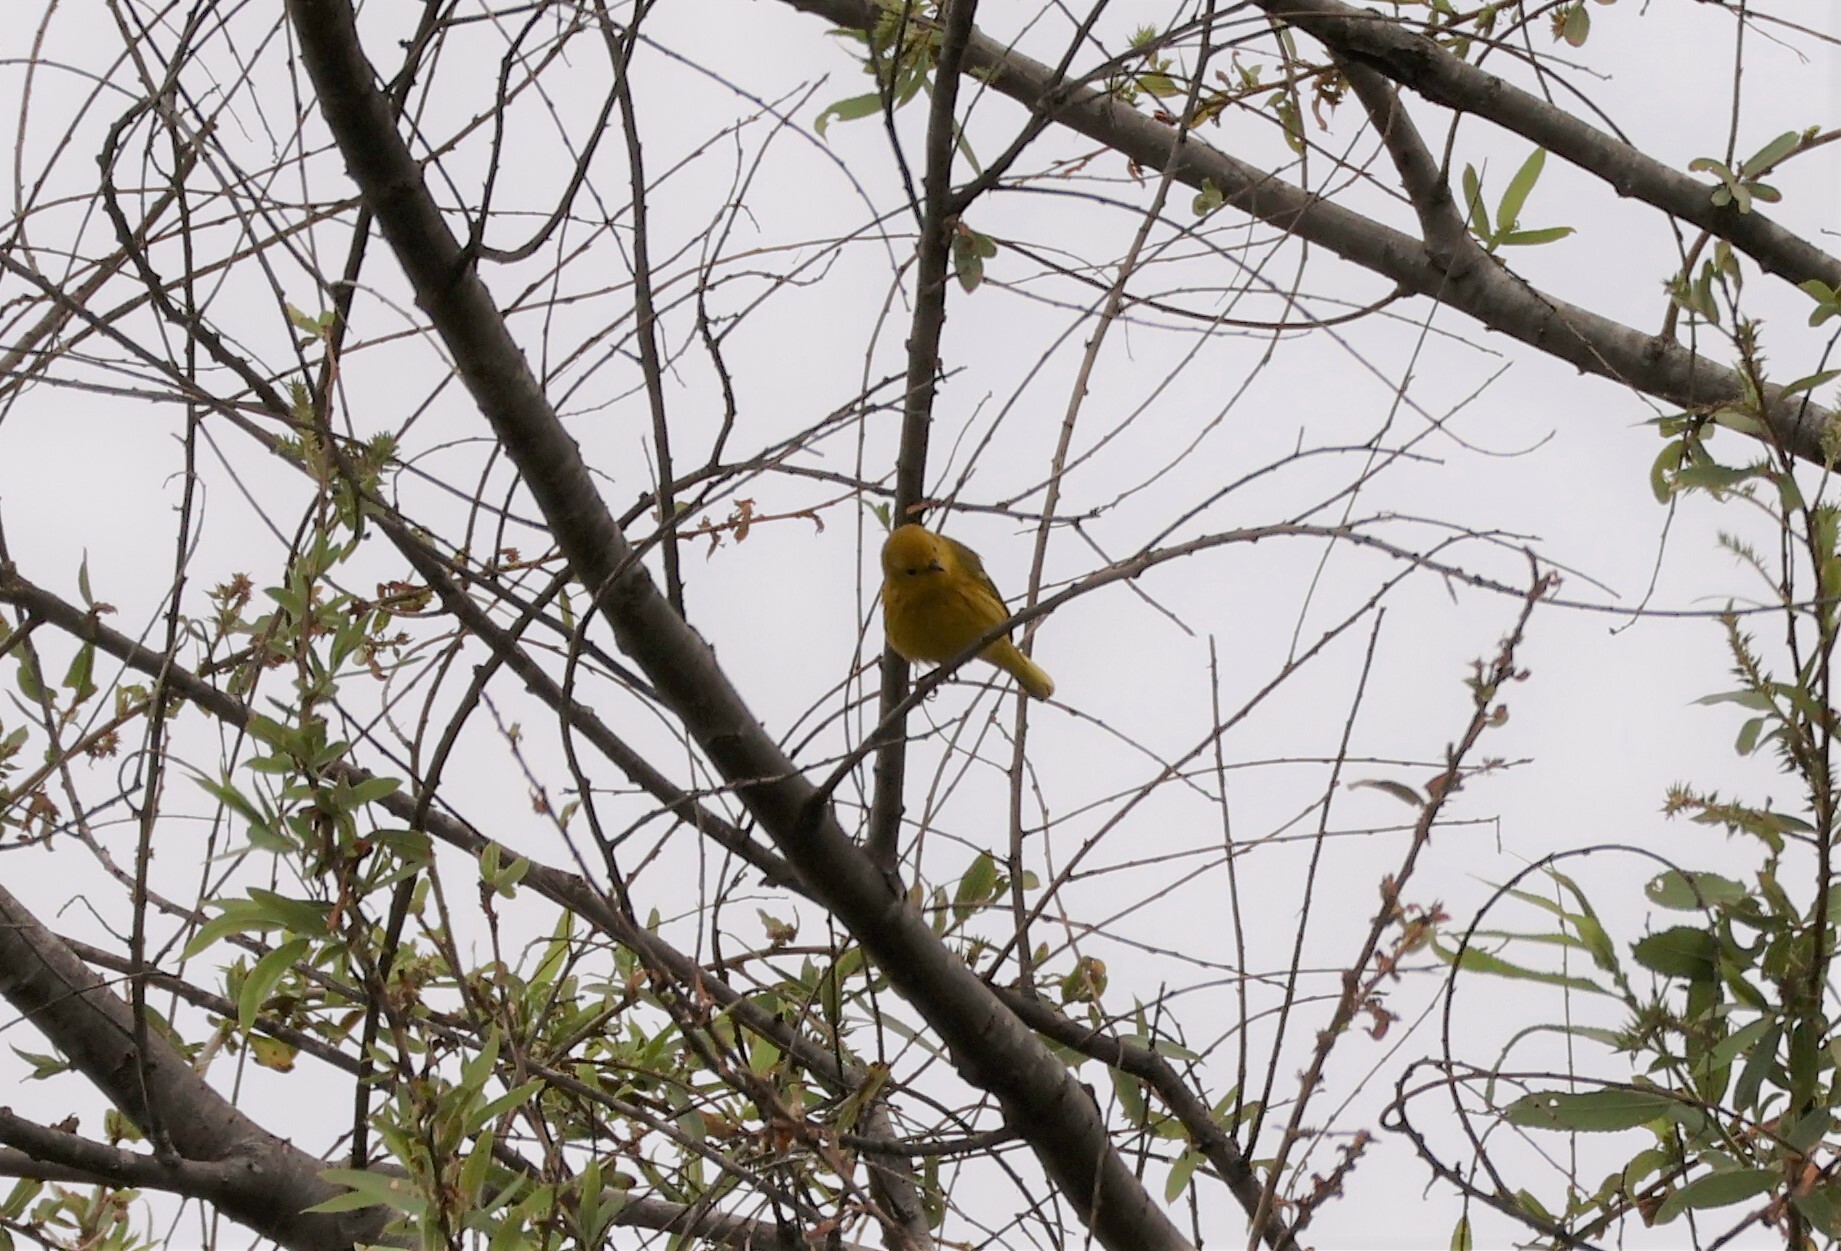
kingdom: Animalia
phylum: Chordata
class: Aves
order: Passeriformes
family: Parulidae
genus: Setophaga
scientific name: Setophaga petechia
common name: Yellow warbler
